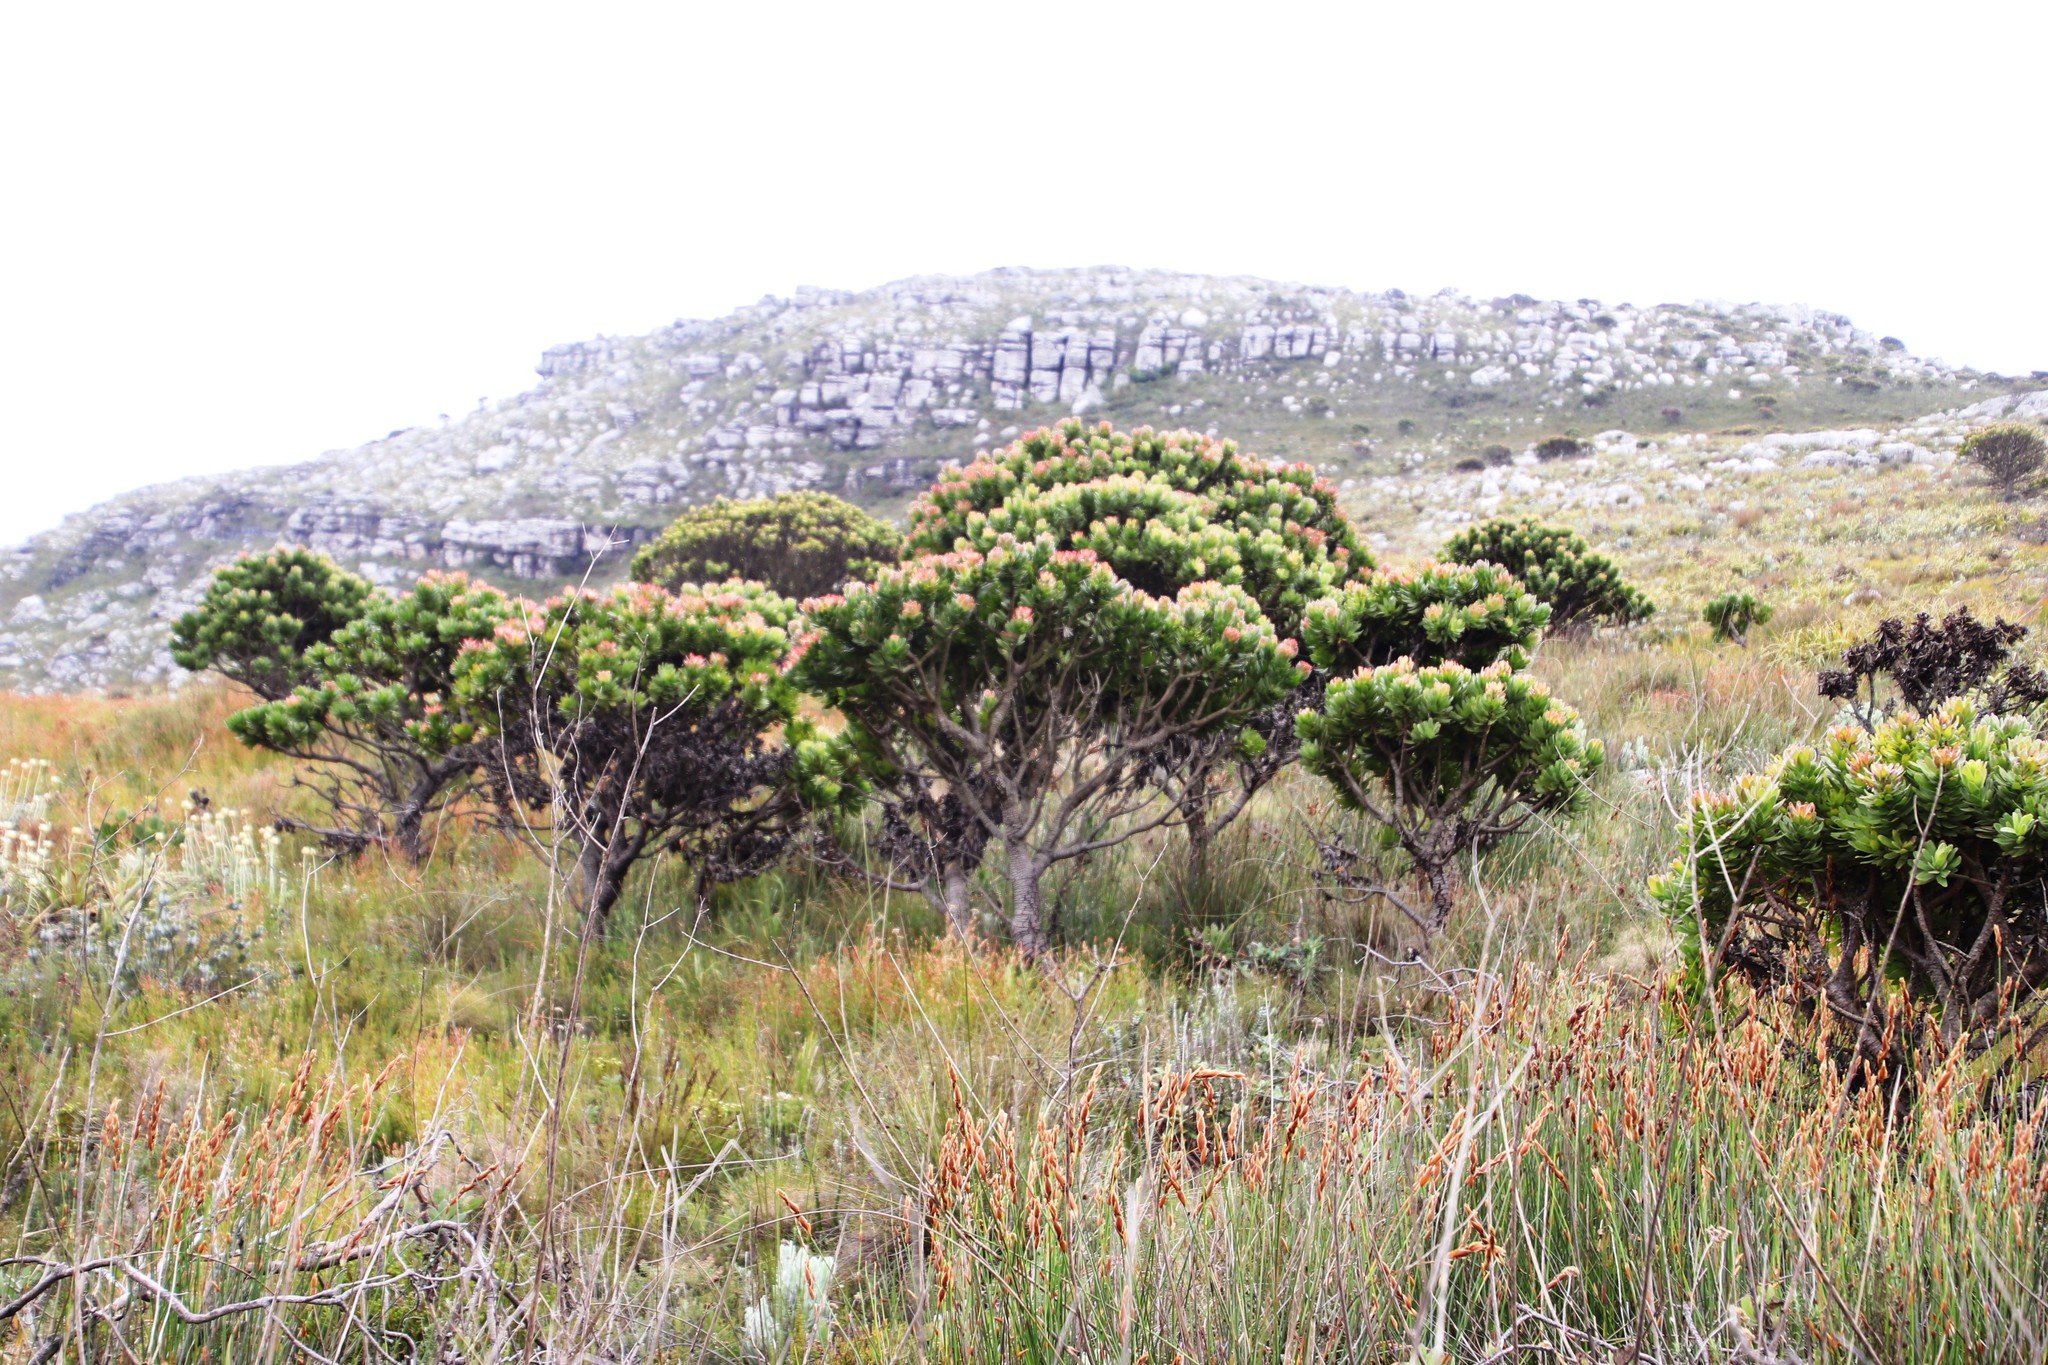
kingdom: Plantae
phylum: Tracheophyta
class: Magnoliopsida
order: Proteales
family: Proteaceae
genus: Mimetes
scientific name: Mimetes fimbriifolius
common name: Fringed bottlebrush
